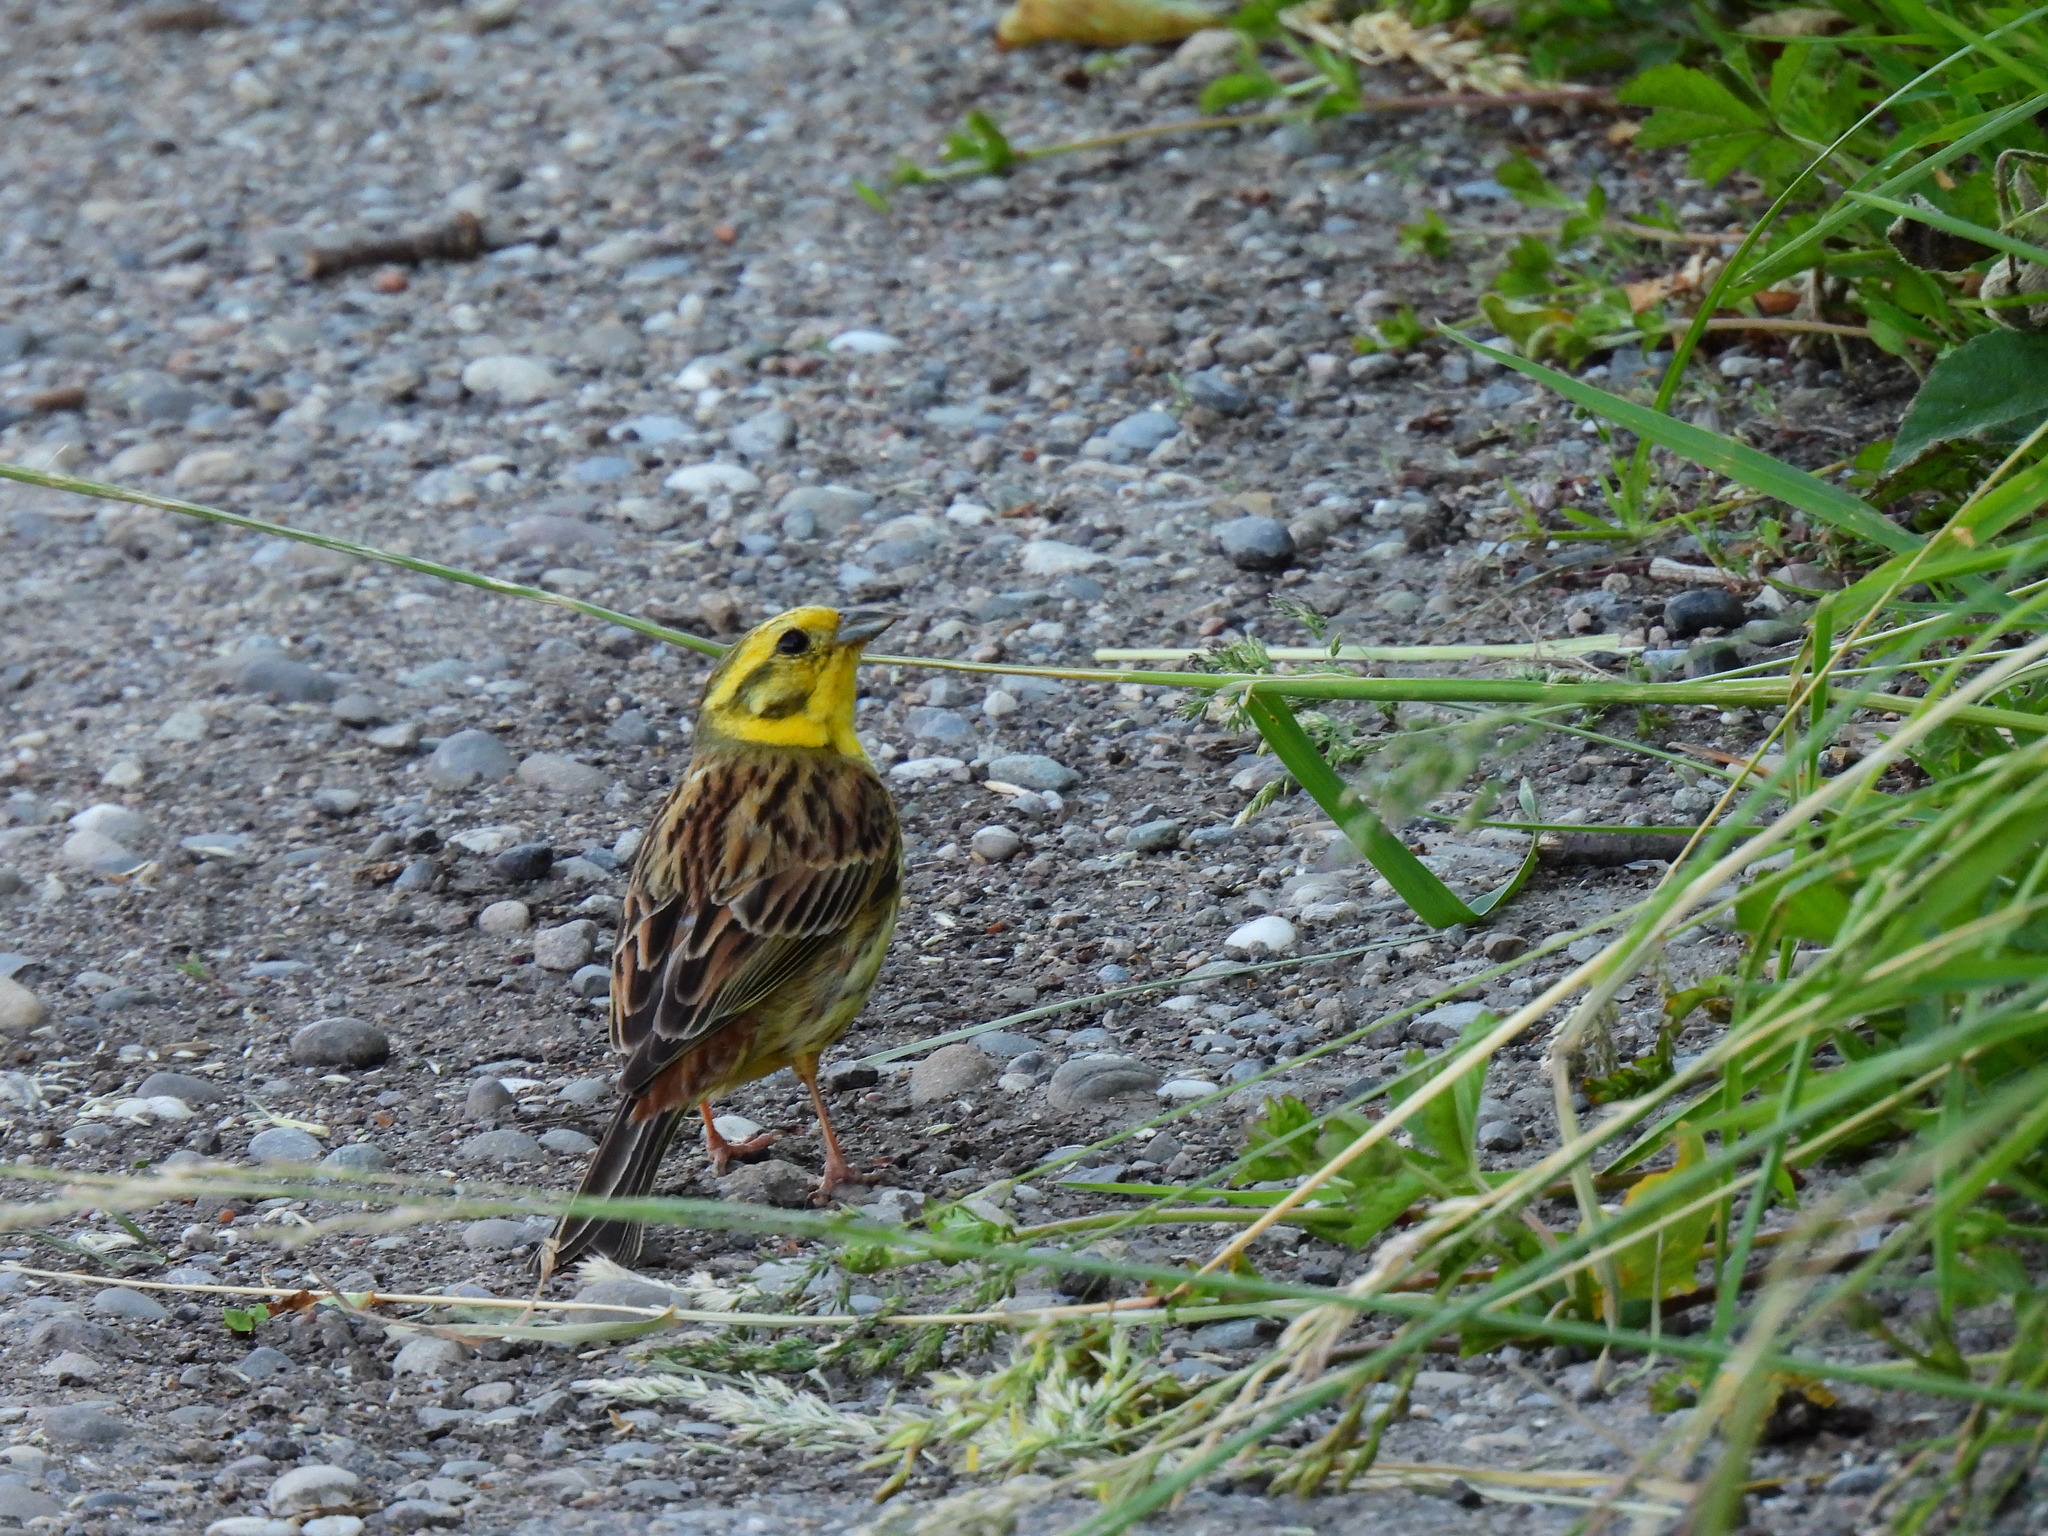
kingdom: Animalia
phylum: Chordata
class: Aves
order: Passeriformes
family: Emberizidae
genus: Emberiza
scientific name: Emberiza citrinella
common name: Yellowhammer
